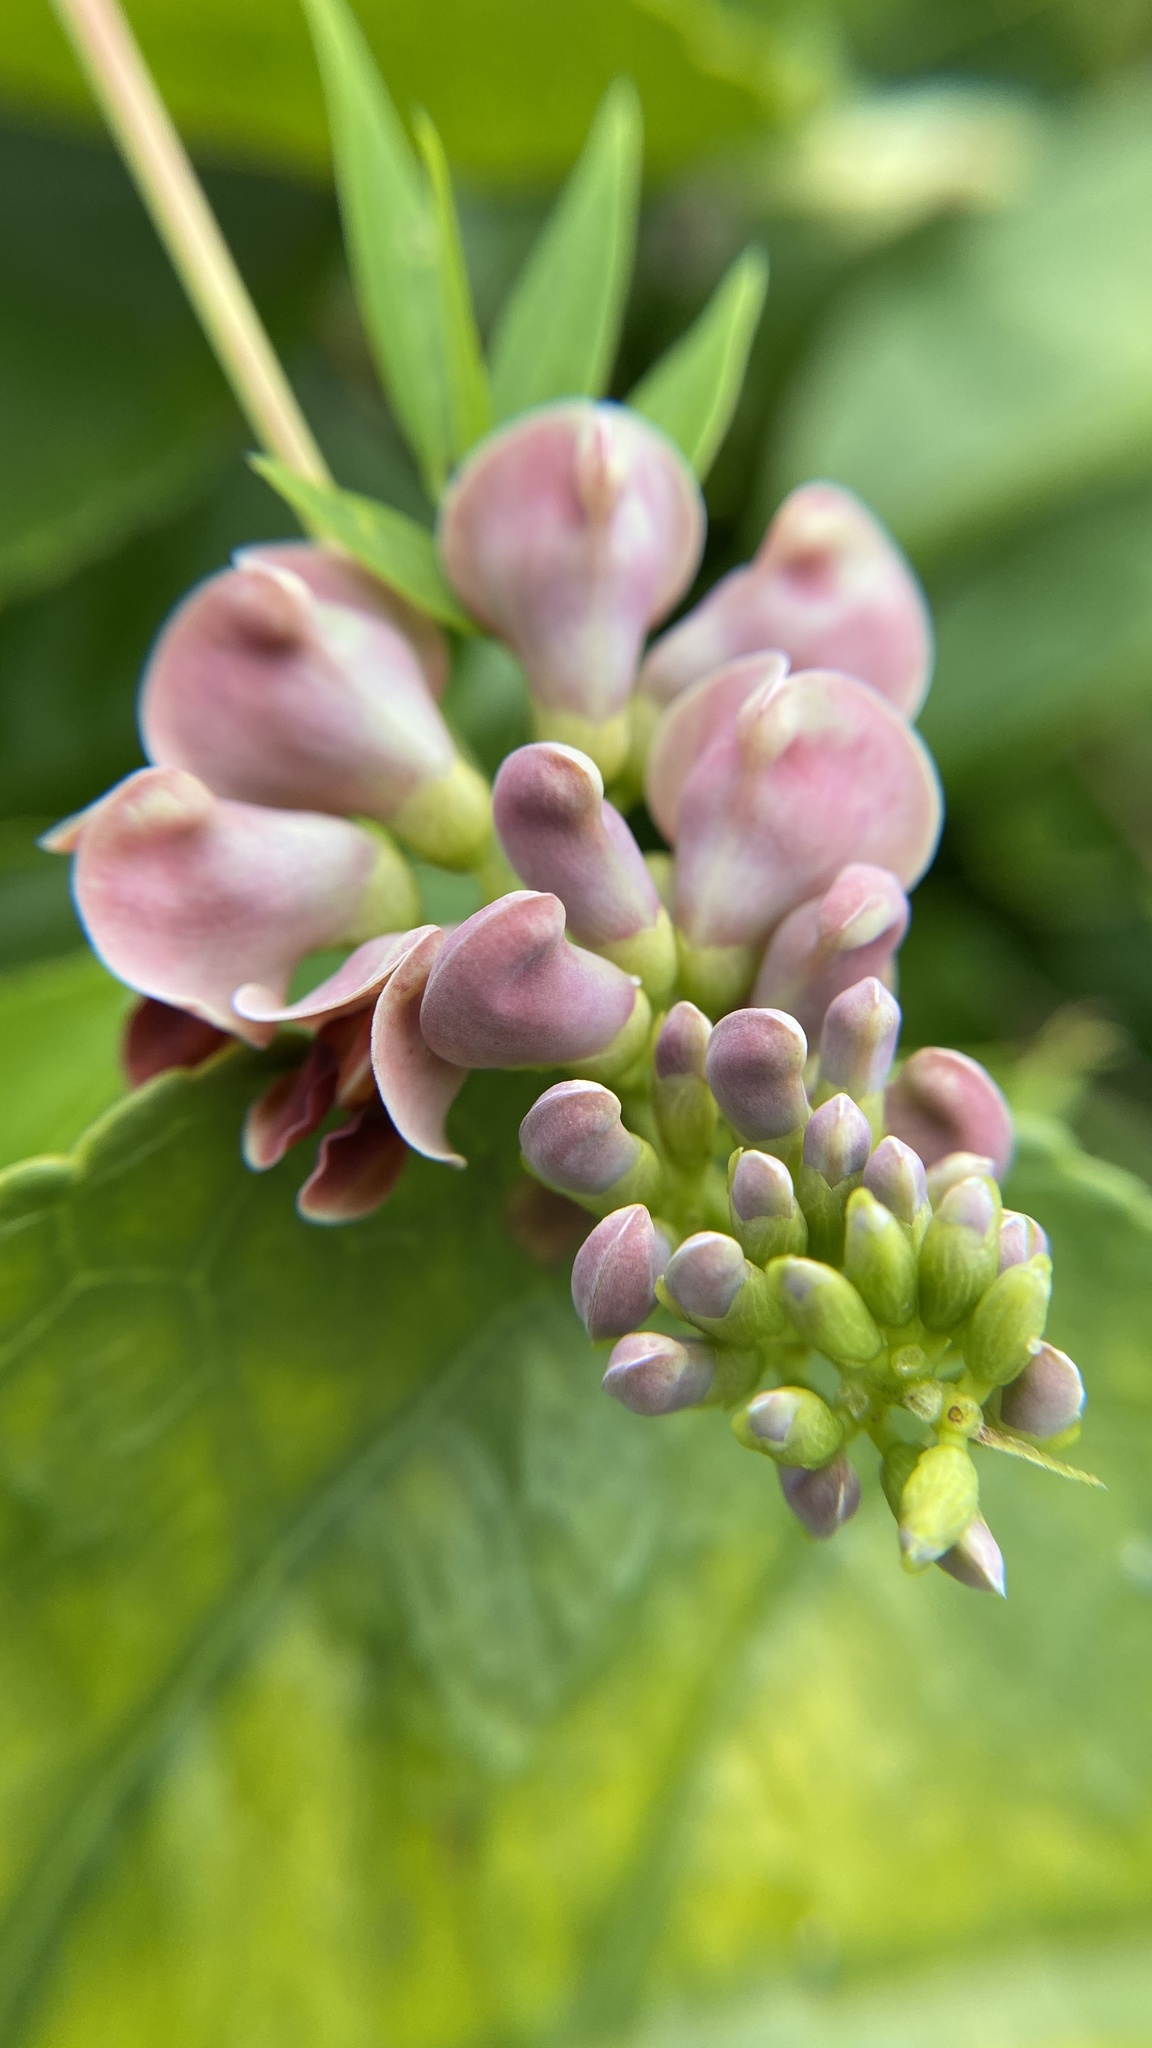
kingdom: Plantae
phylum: Tracheophyta
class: Magnoliopsida
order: Fabales
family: Fabaceae
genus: Apios
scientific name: Apios americana
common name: American potato-bean
